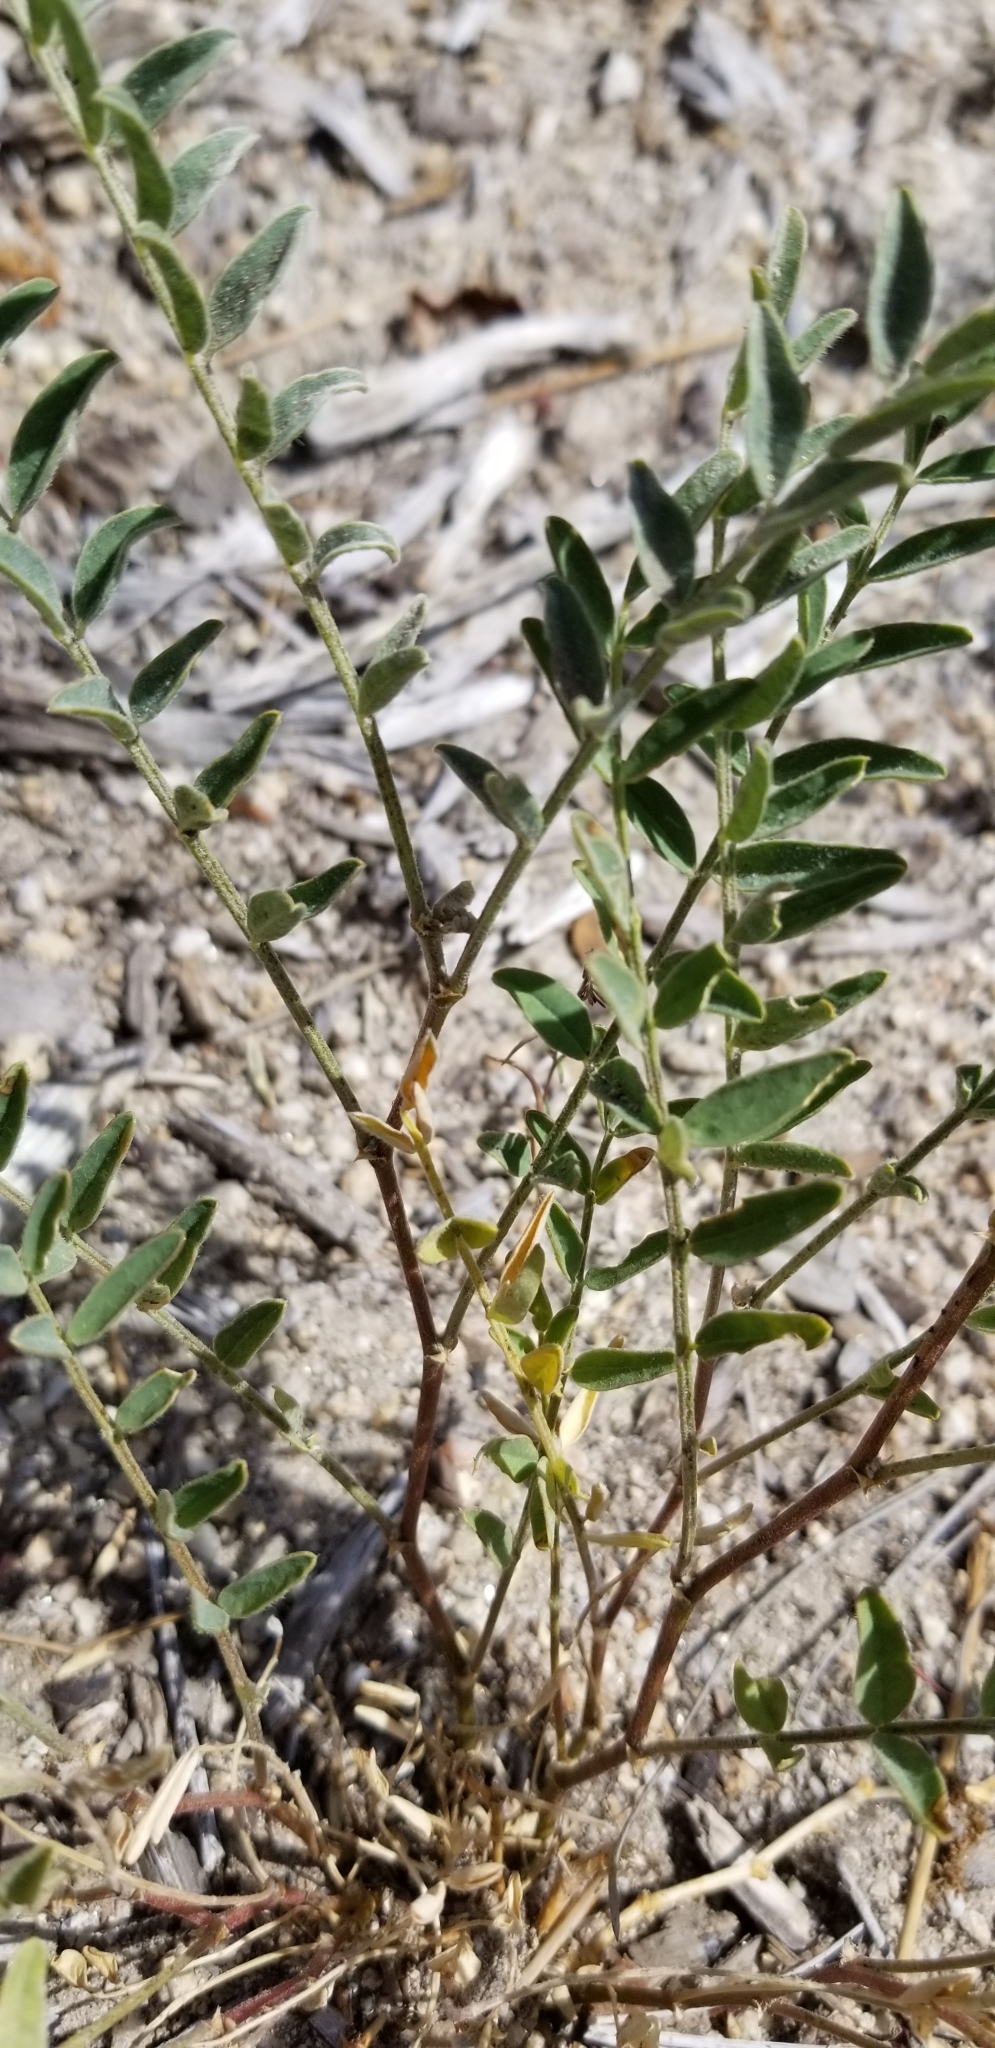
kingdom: Plantae
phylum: Tracheophyta
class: Magnoliopsida
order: Fabales
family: Fabaceae
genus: Astragalus
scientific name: Astragalus douglasii
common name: Jacumba milkvetch
